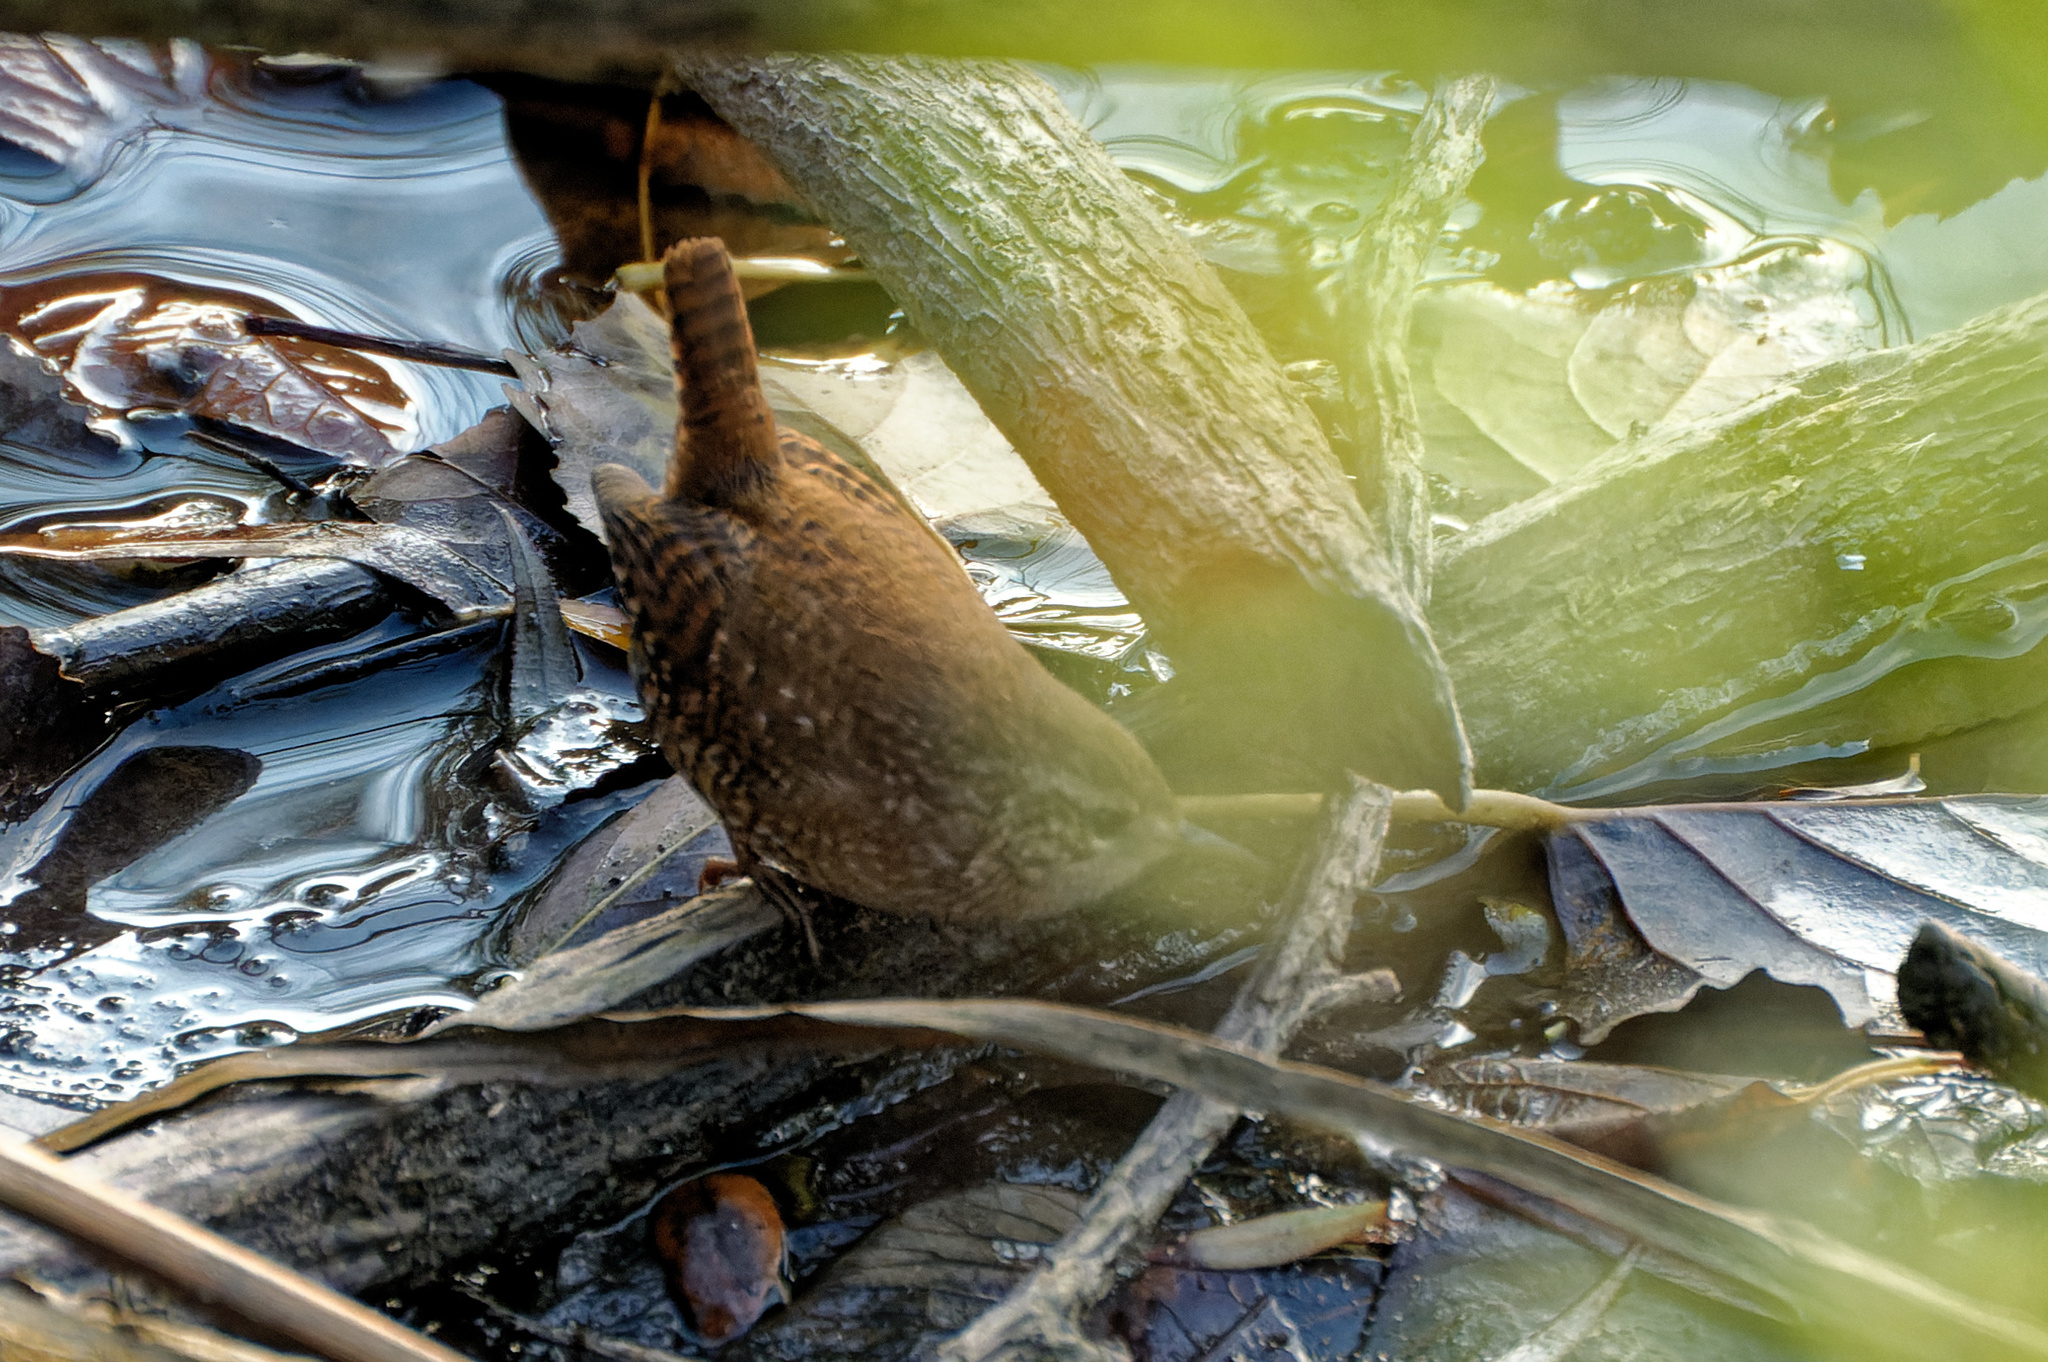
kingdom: Animalia
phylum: Chordata
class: Aves
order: Passeriformes
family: Troglodytidae
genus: Troglodytes
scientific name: Troglodytes hiemalis
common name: Winter wren
